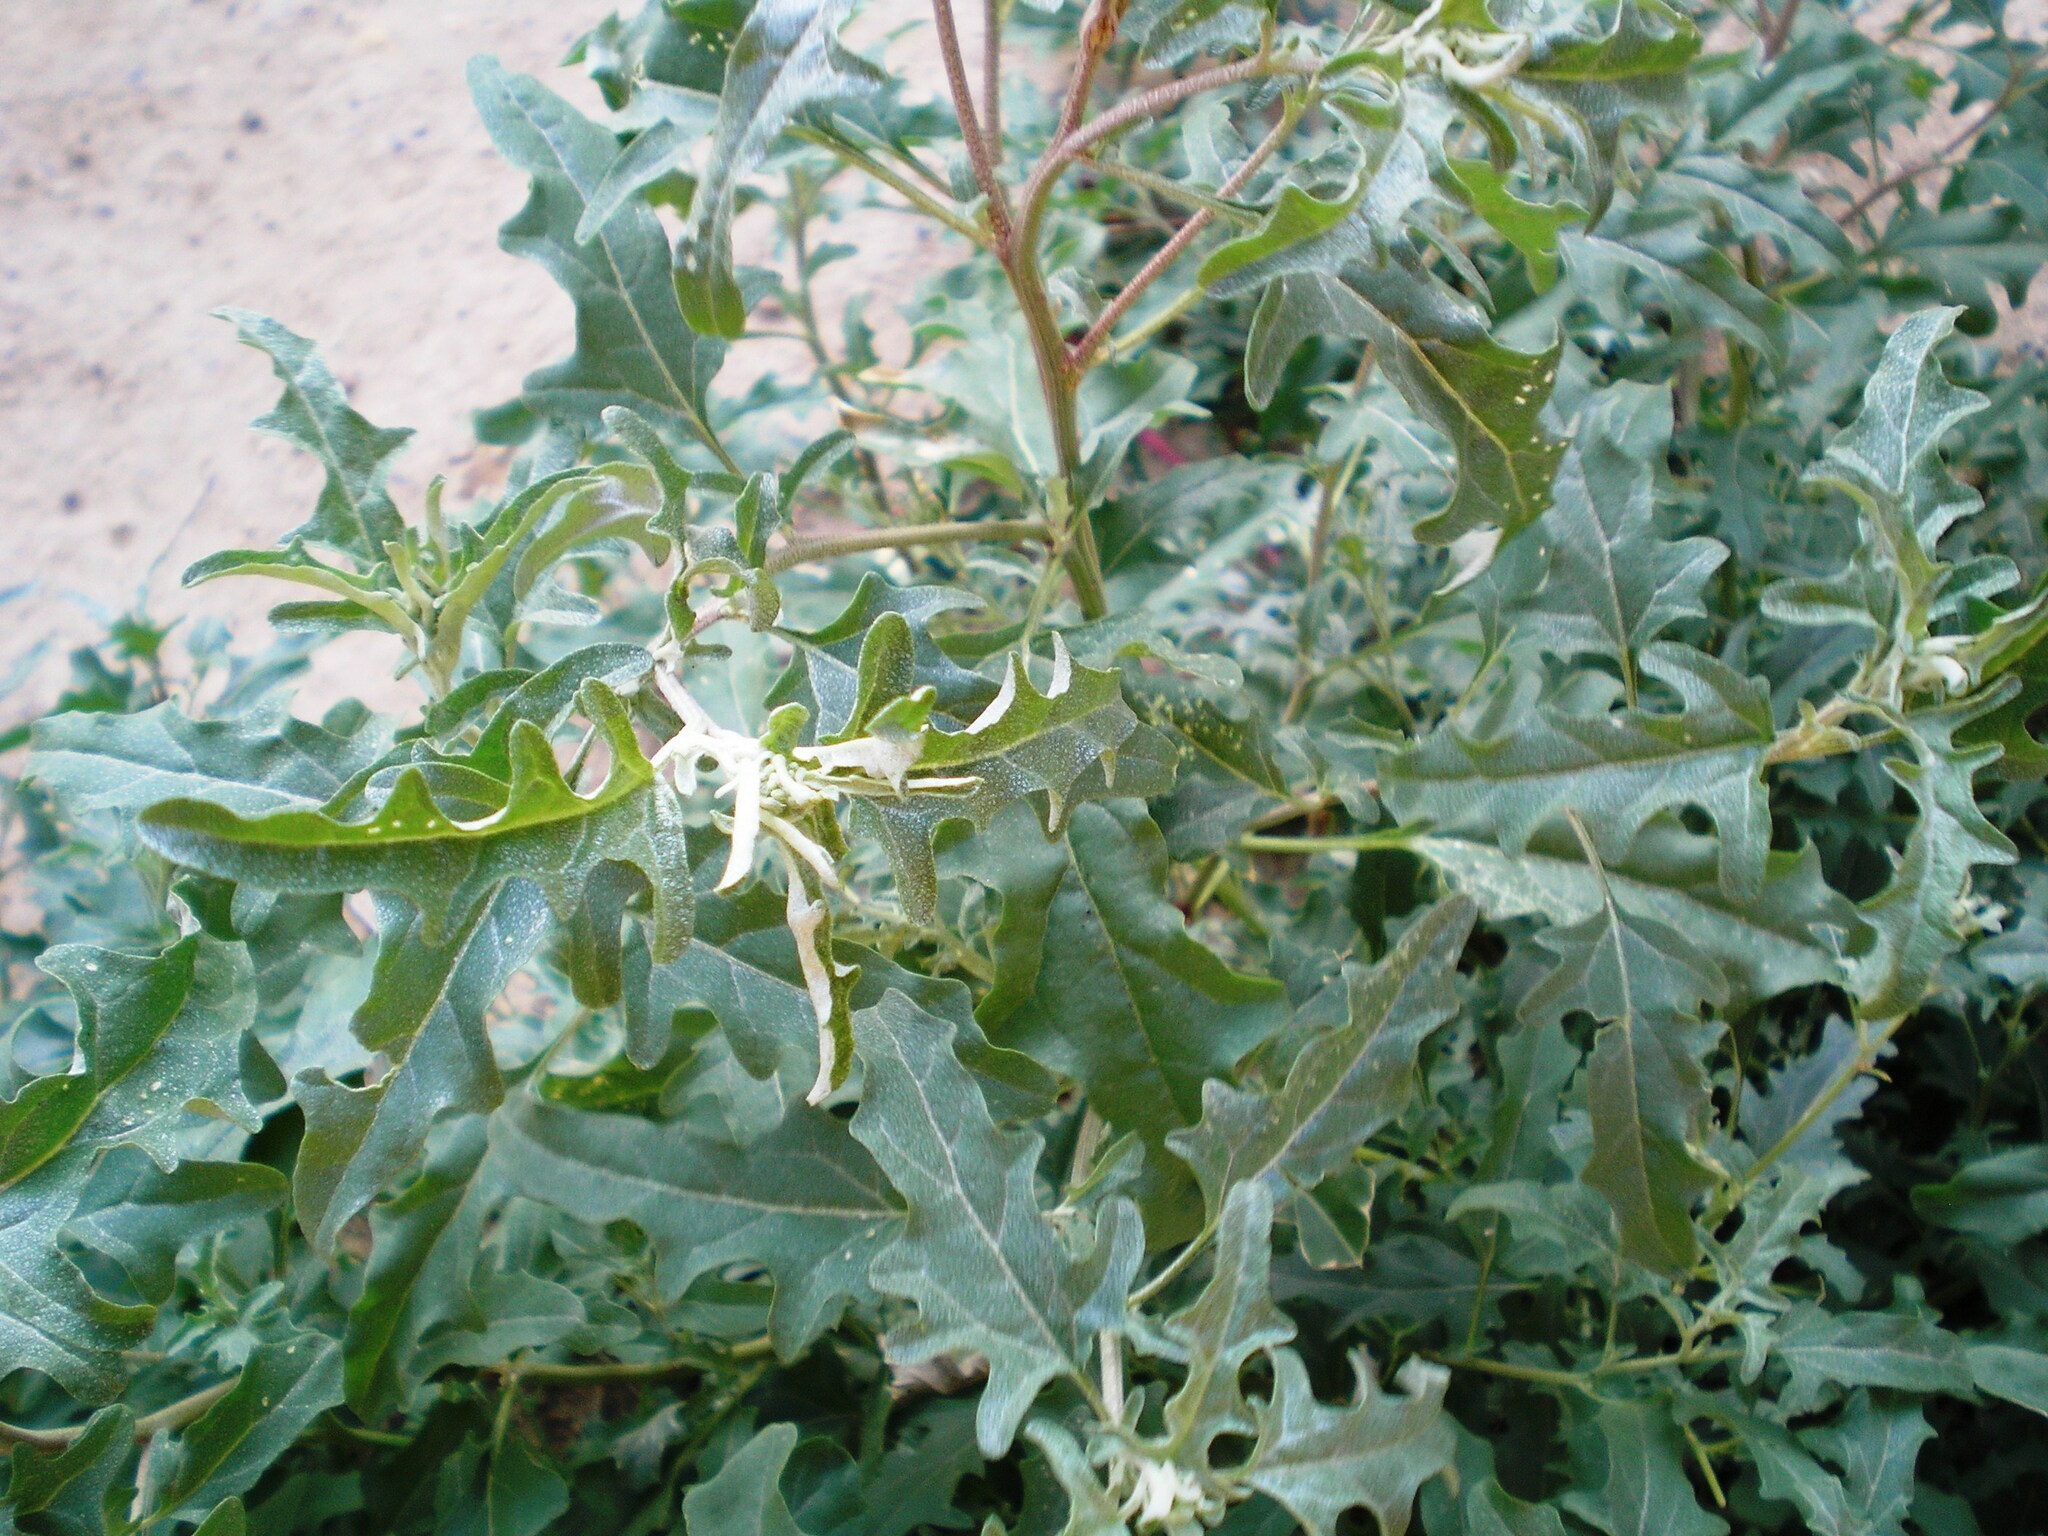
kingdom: Plantae
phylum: Tracheophyta
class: Magnoliopsida
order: Caryophyllales
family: Amaranthaceae
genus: Atriplex
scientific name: Atriplex tatarica
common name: Tatarian orache
